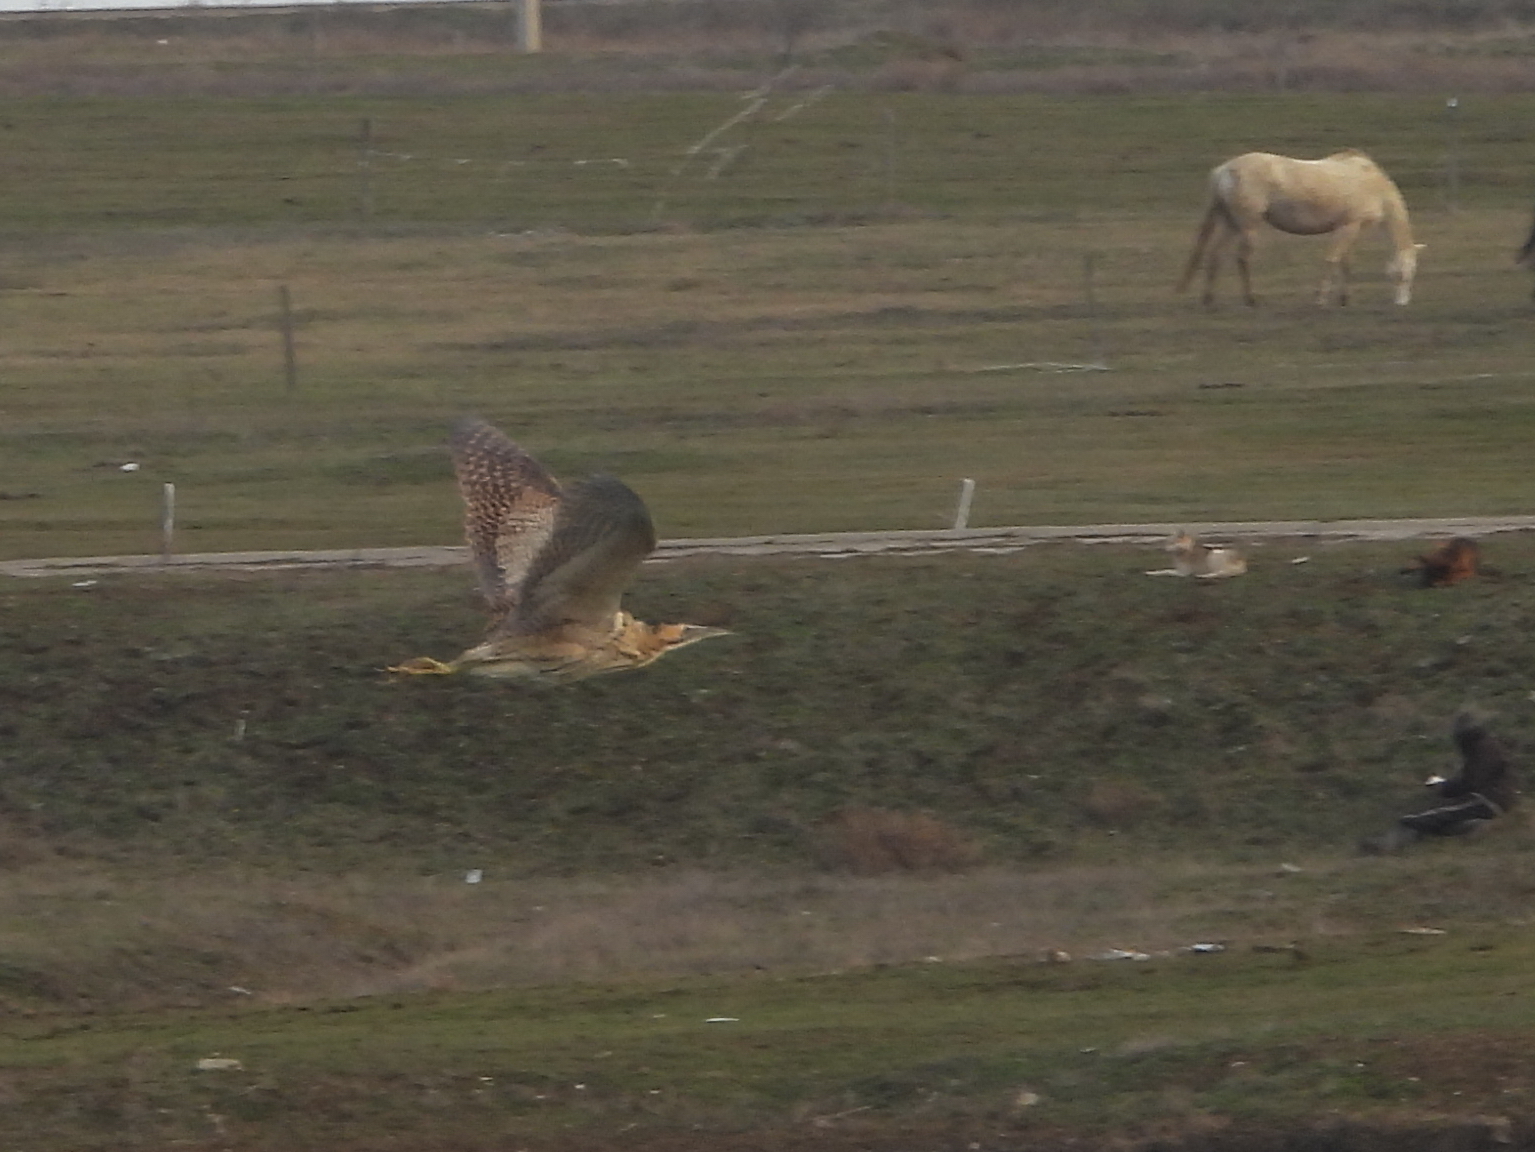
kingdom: Animalia
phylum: Chordata
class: Aves
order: Pelecaniformes
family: Ardeidae
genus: Botaurus
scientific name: Botaurus stellaris
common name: Eurasian bittern
